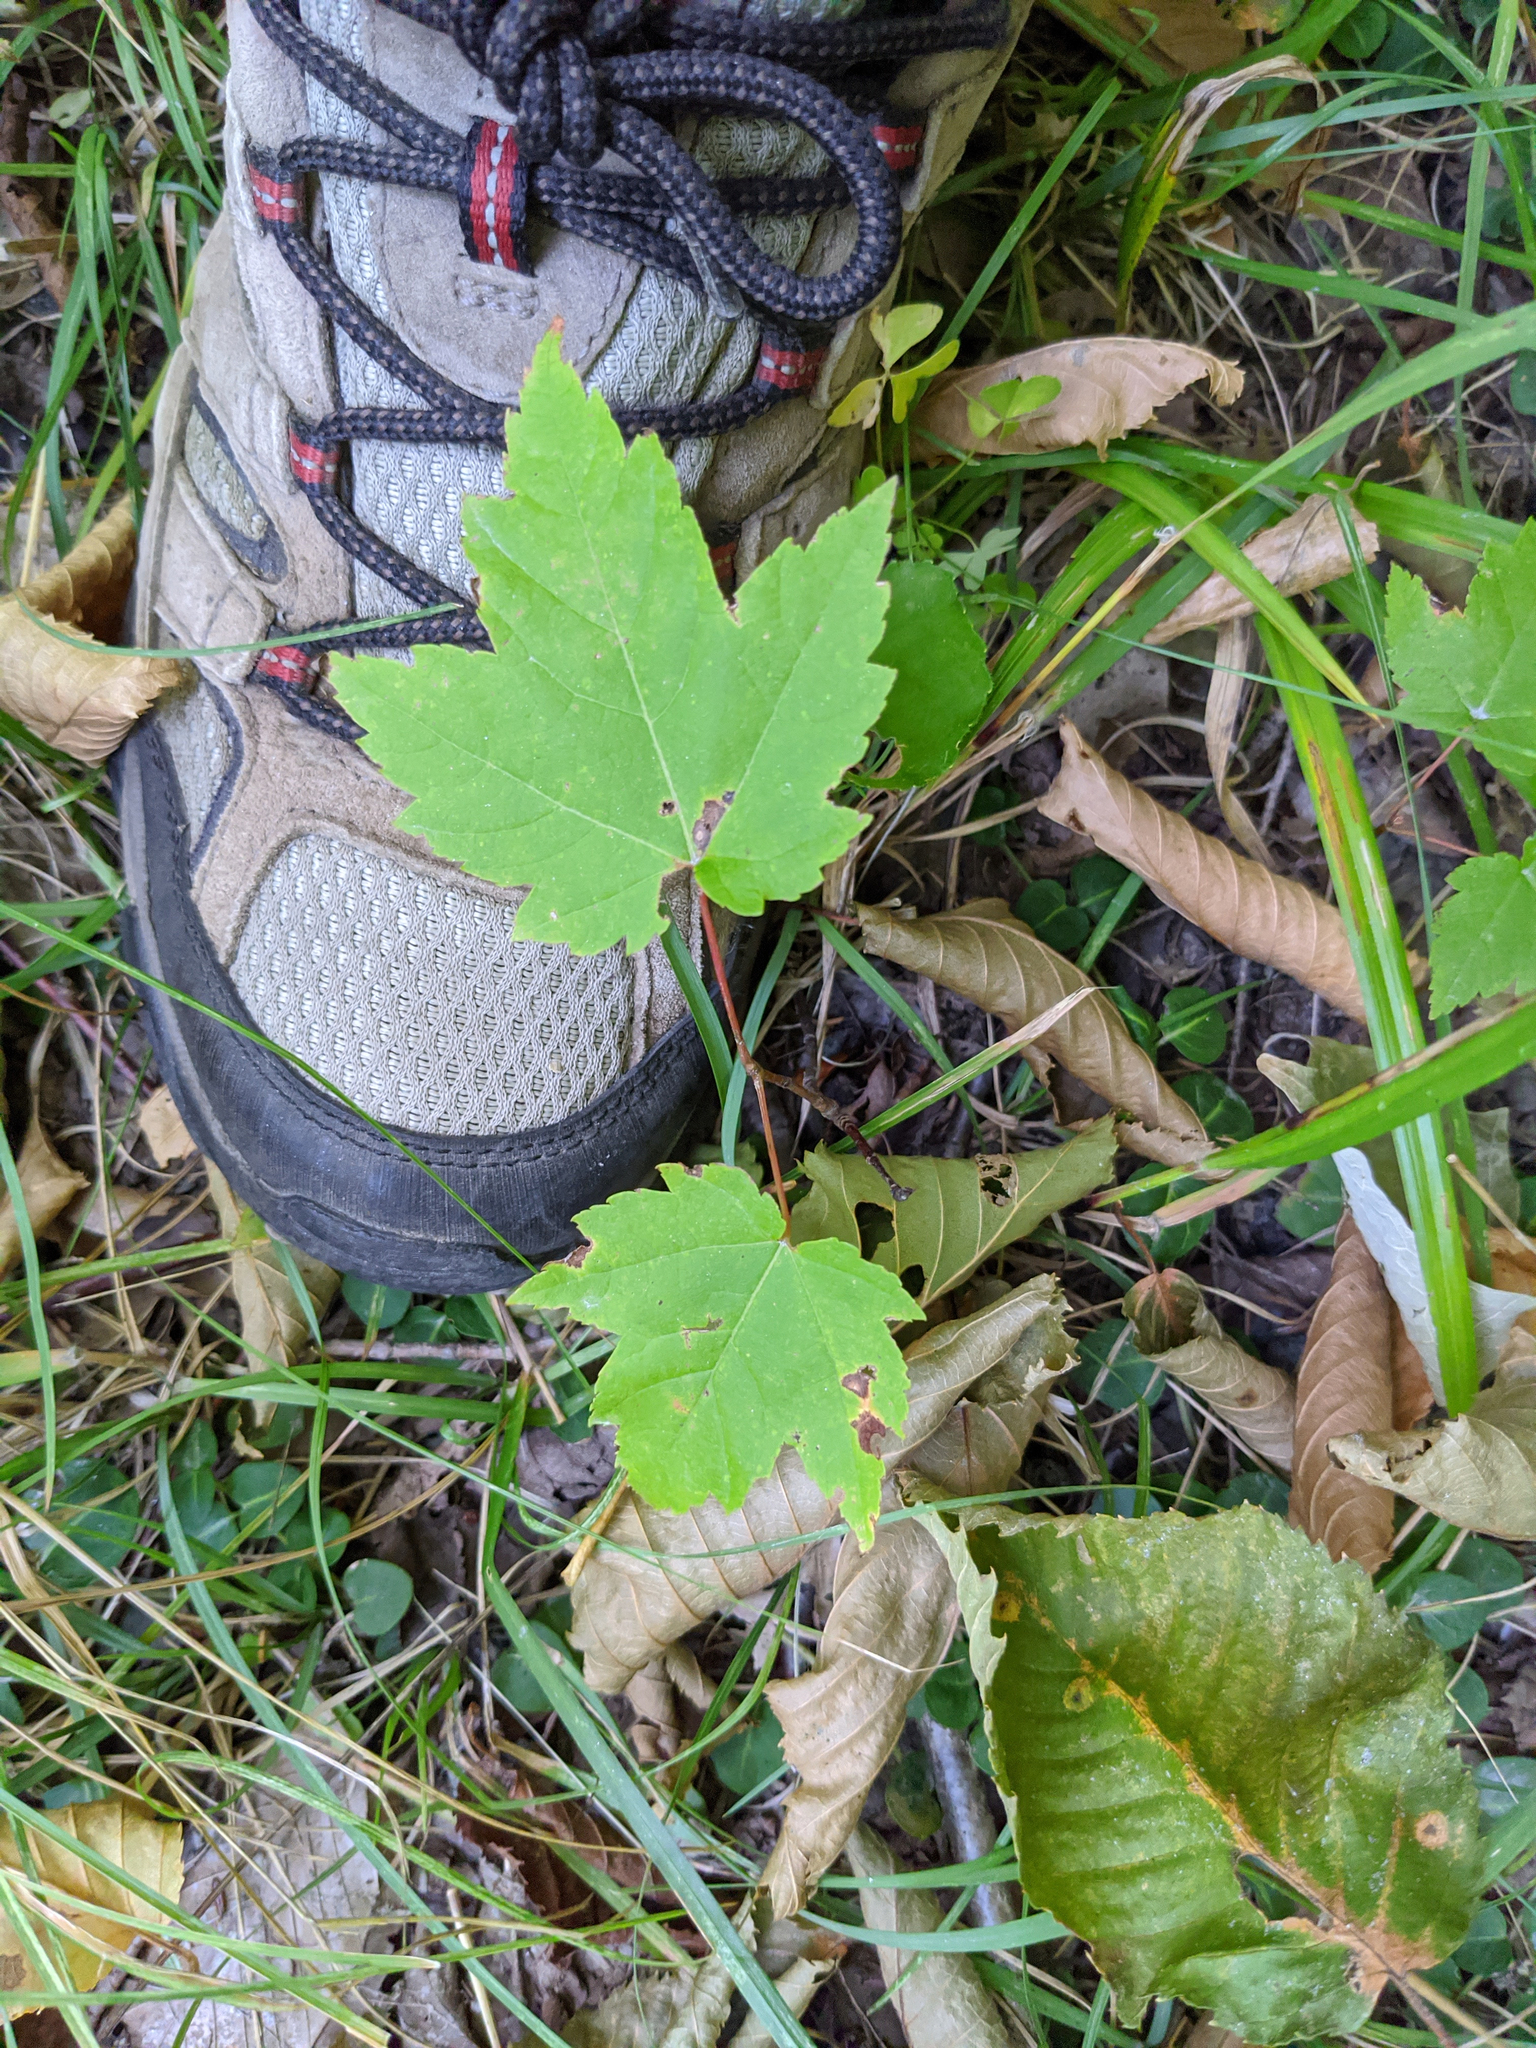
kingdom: Plantae
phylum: Tracheophyta
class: Magnoliopsida
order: Sapindales
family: Sapindaceae
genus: Acer
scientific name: Acer rubrum
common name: Red maple
